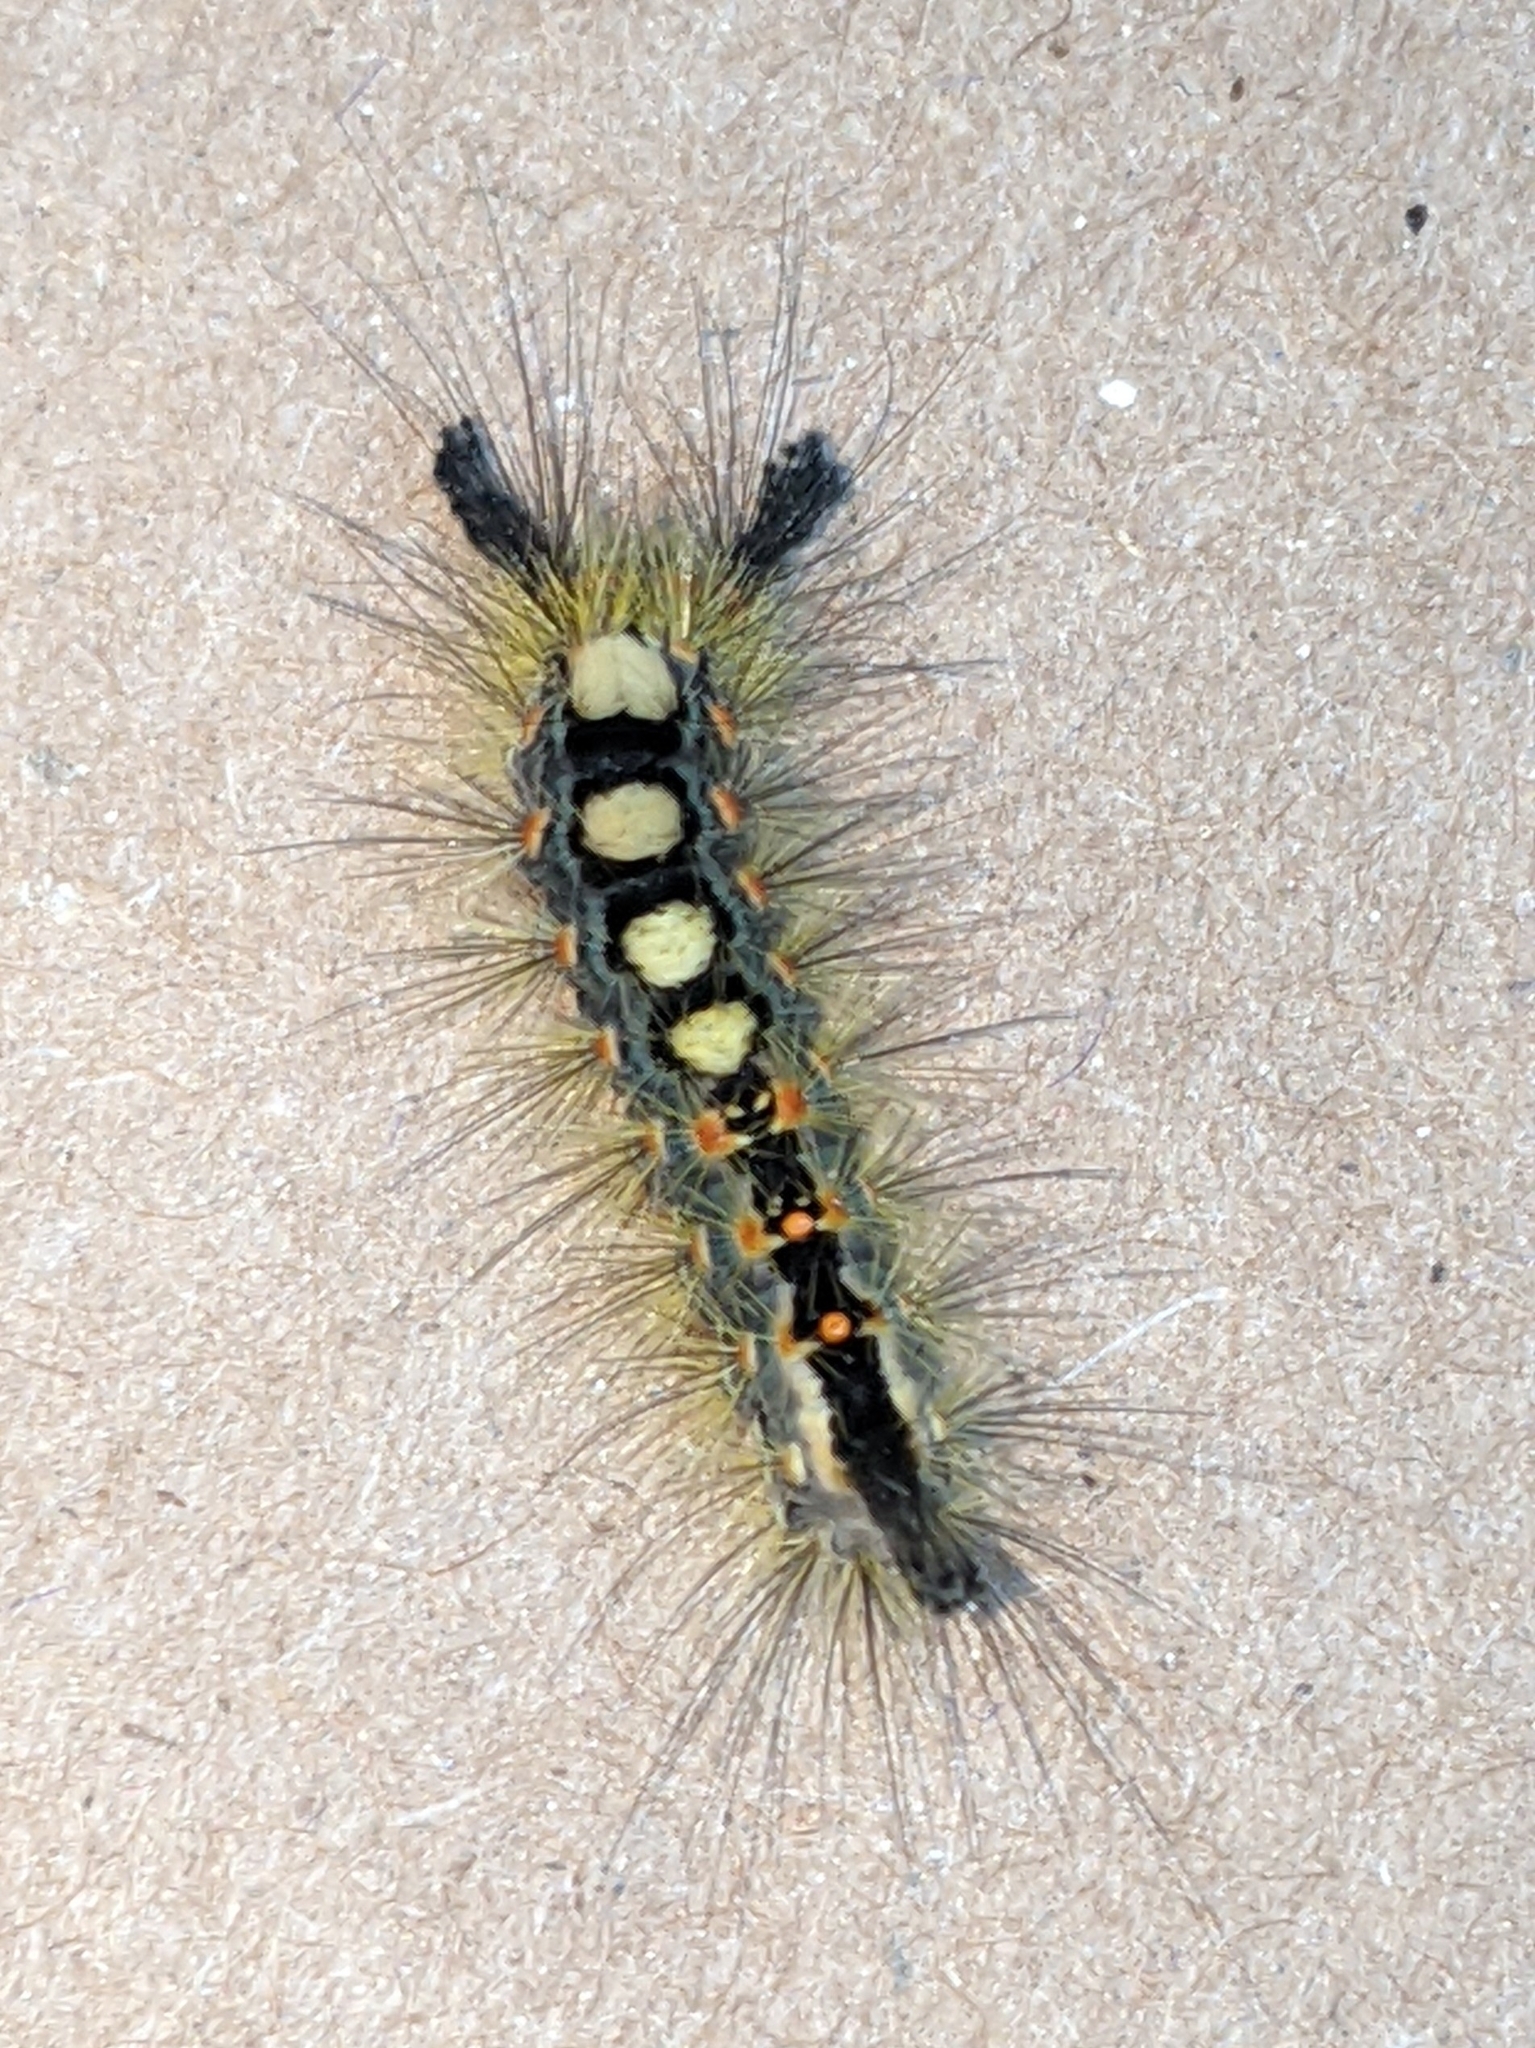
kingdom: Animalia
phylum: Arthropoda
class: Insecta
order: Lepidoptera
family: Erebidae
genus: Orgyia
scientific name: Orgyia antiqua
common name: Vapourer
